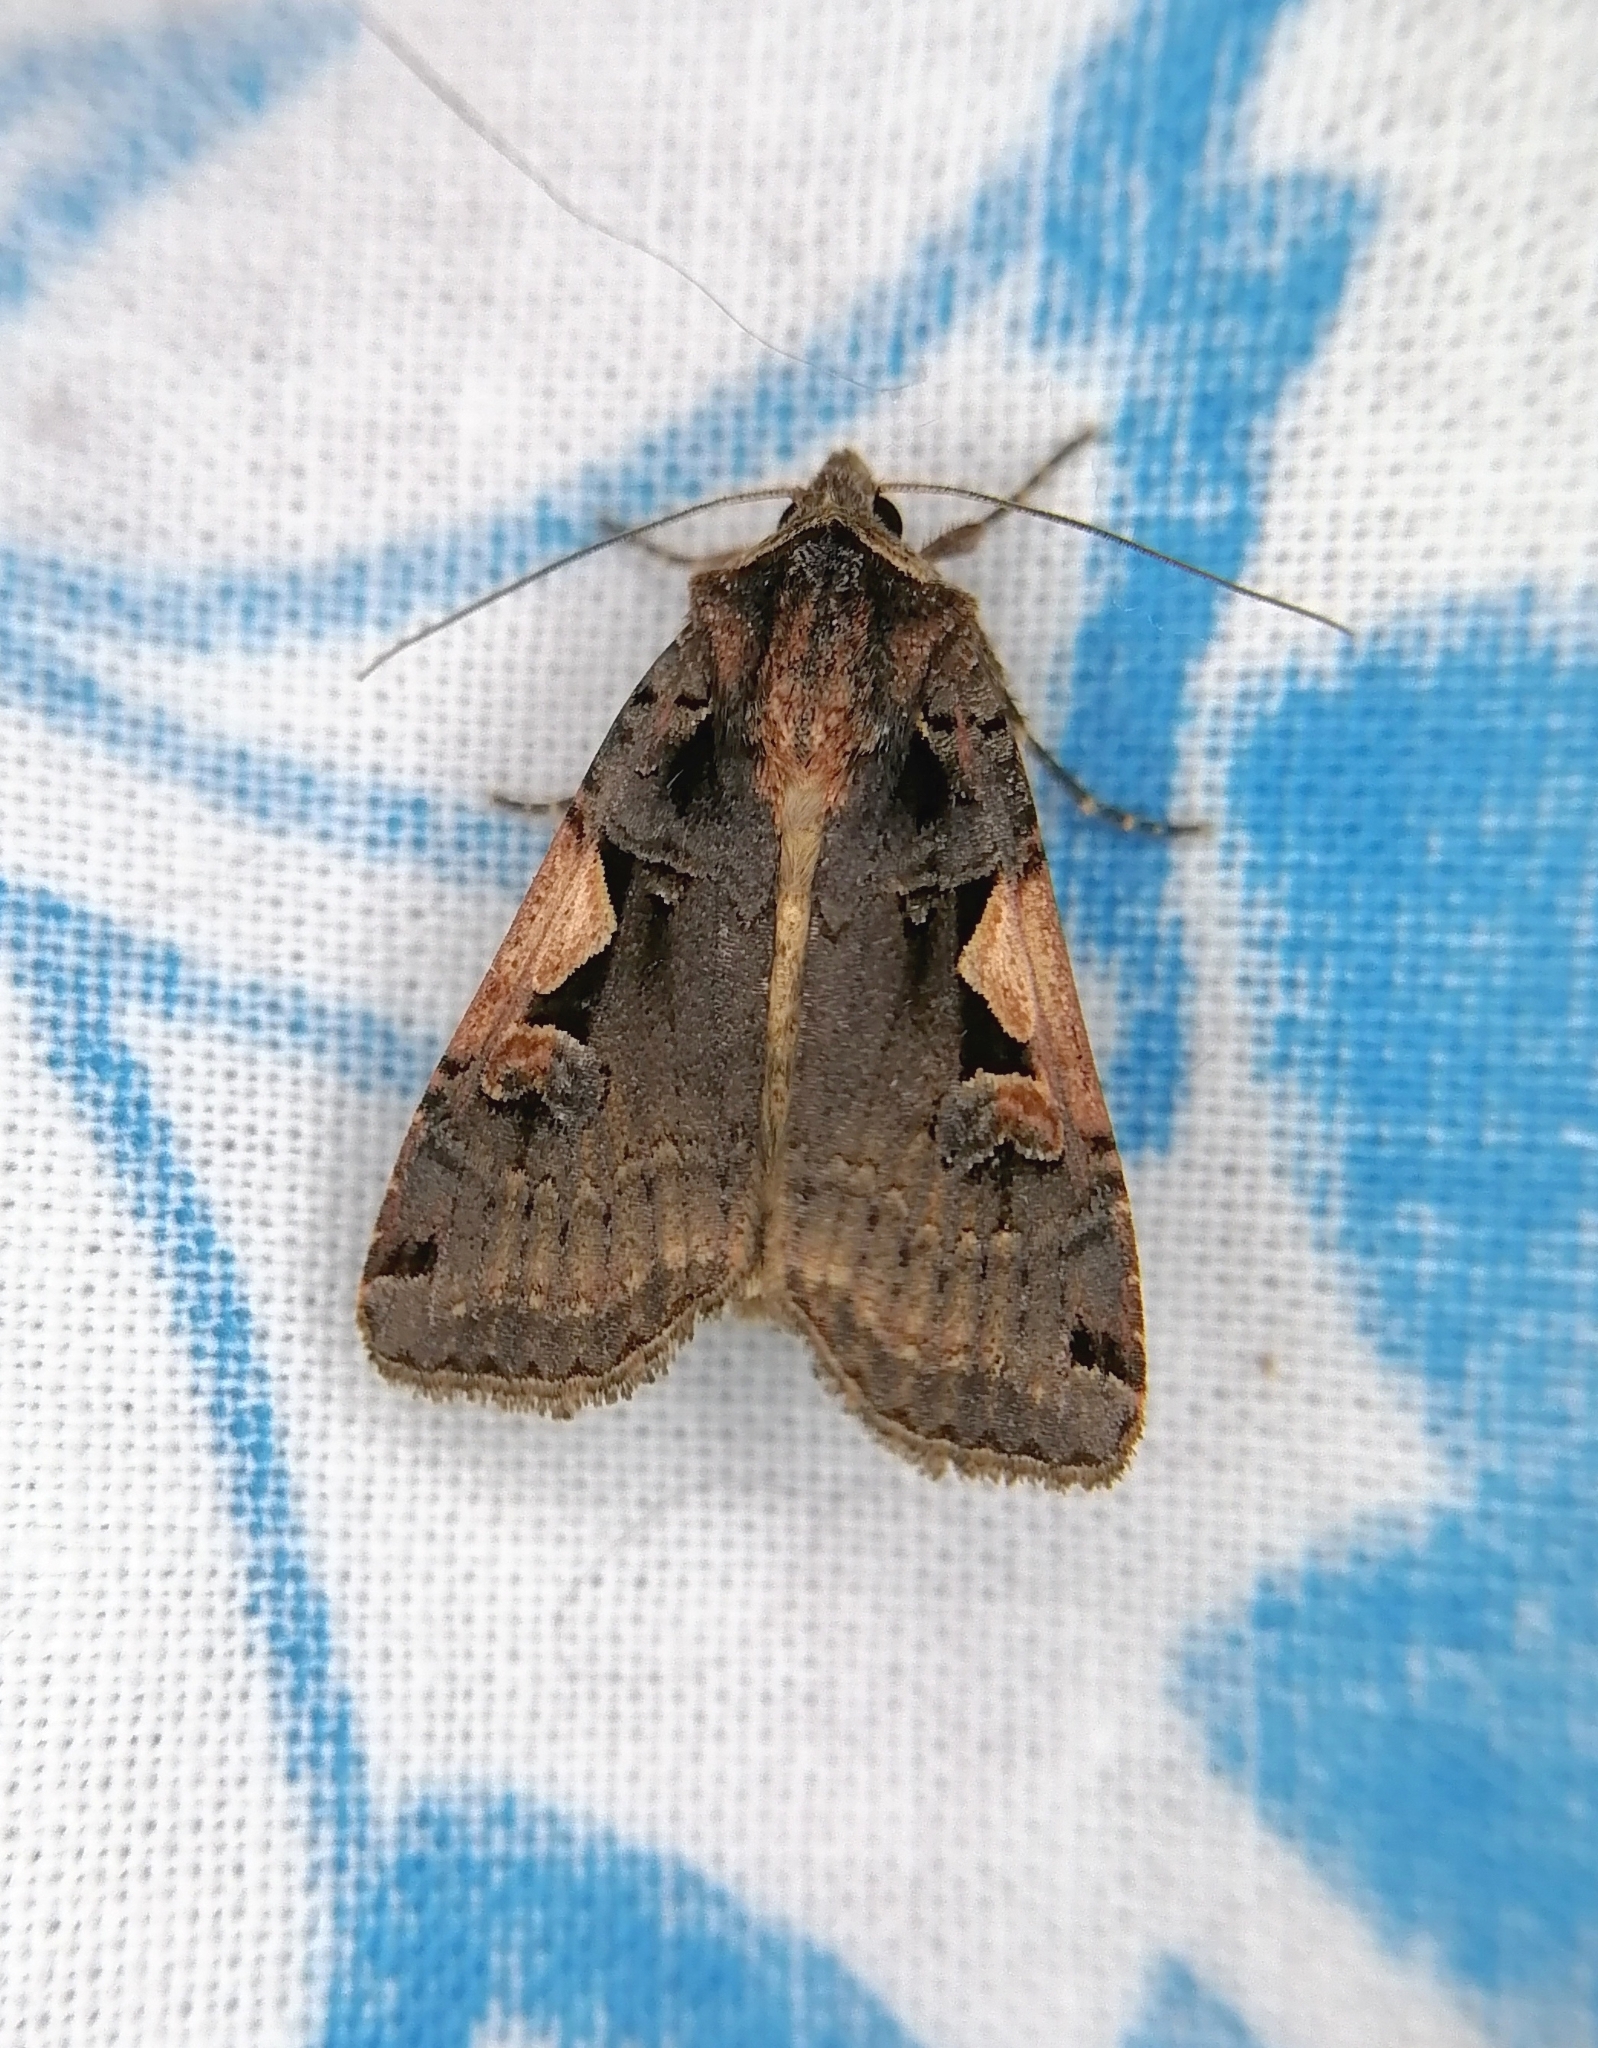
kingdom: Animalia
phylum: Arthropoda
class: Insecta
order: Lepidoptera
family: Noctuidae
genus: Xestia
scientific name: Xestia c-nigrum
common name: Setaceous hebrew character
